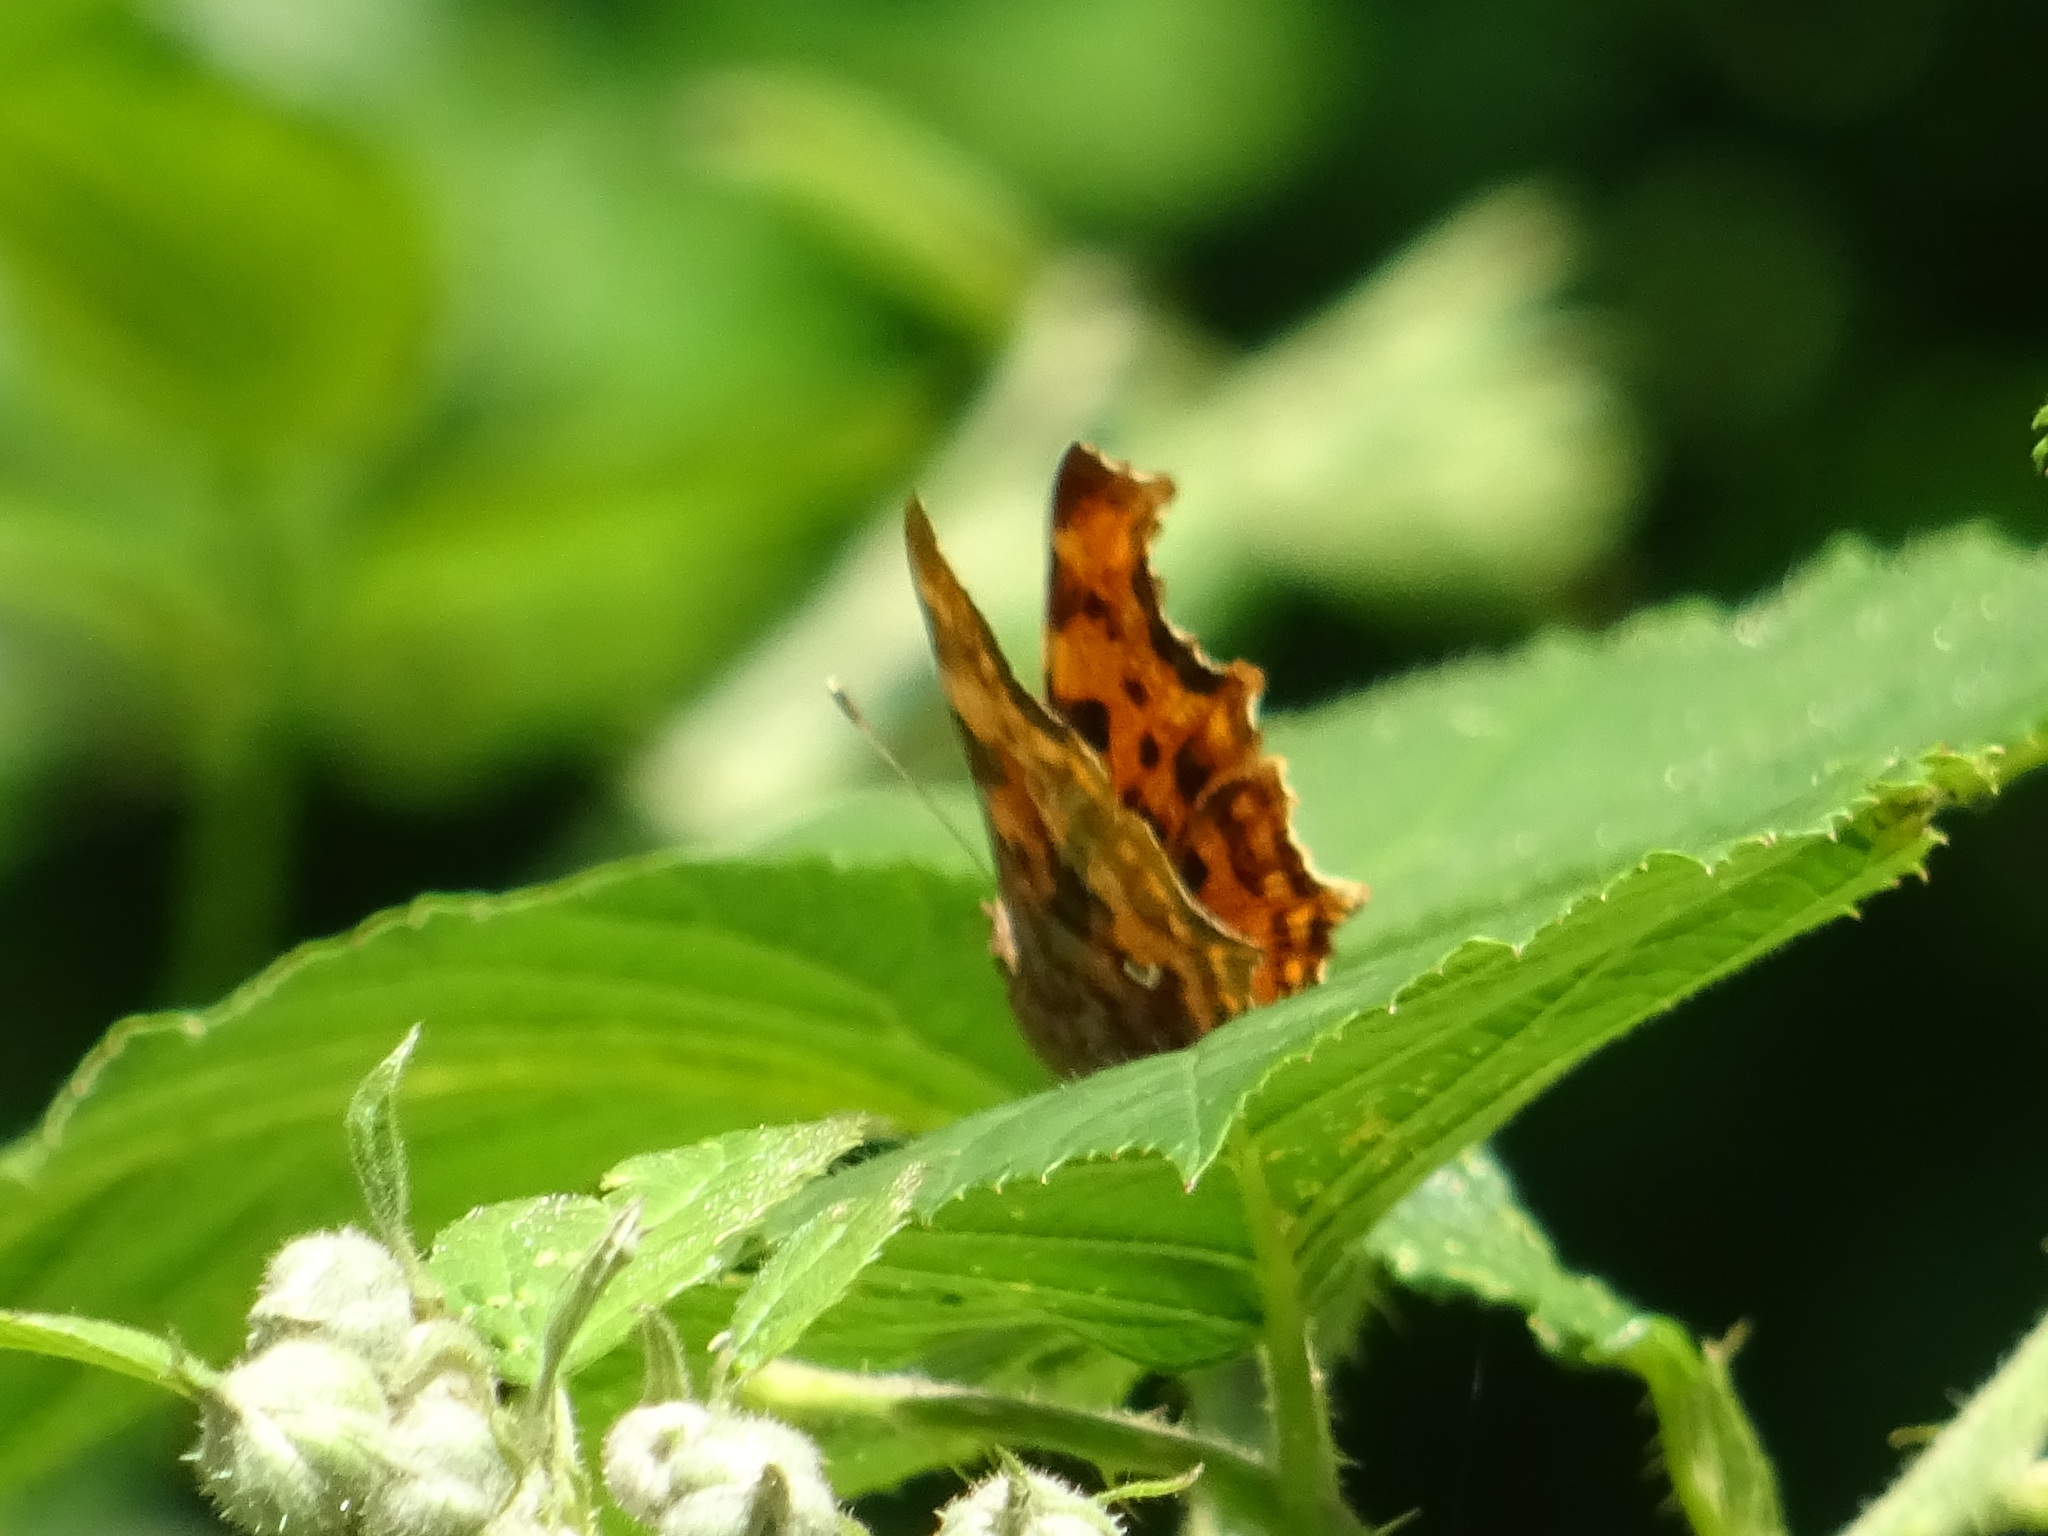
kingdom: Animalia
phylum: Arthropoda
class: Insecta
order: Lepidoptera
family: Nymphalidae
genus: Polygonia
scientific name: Polygonia c-album
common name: Comma
